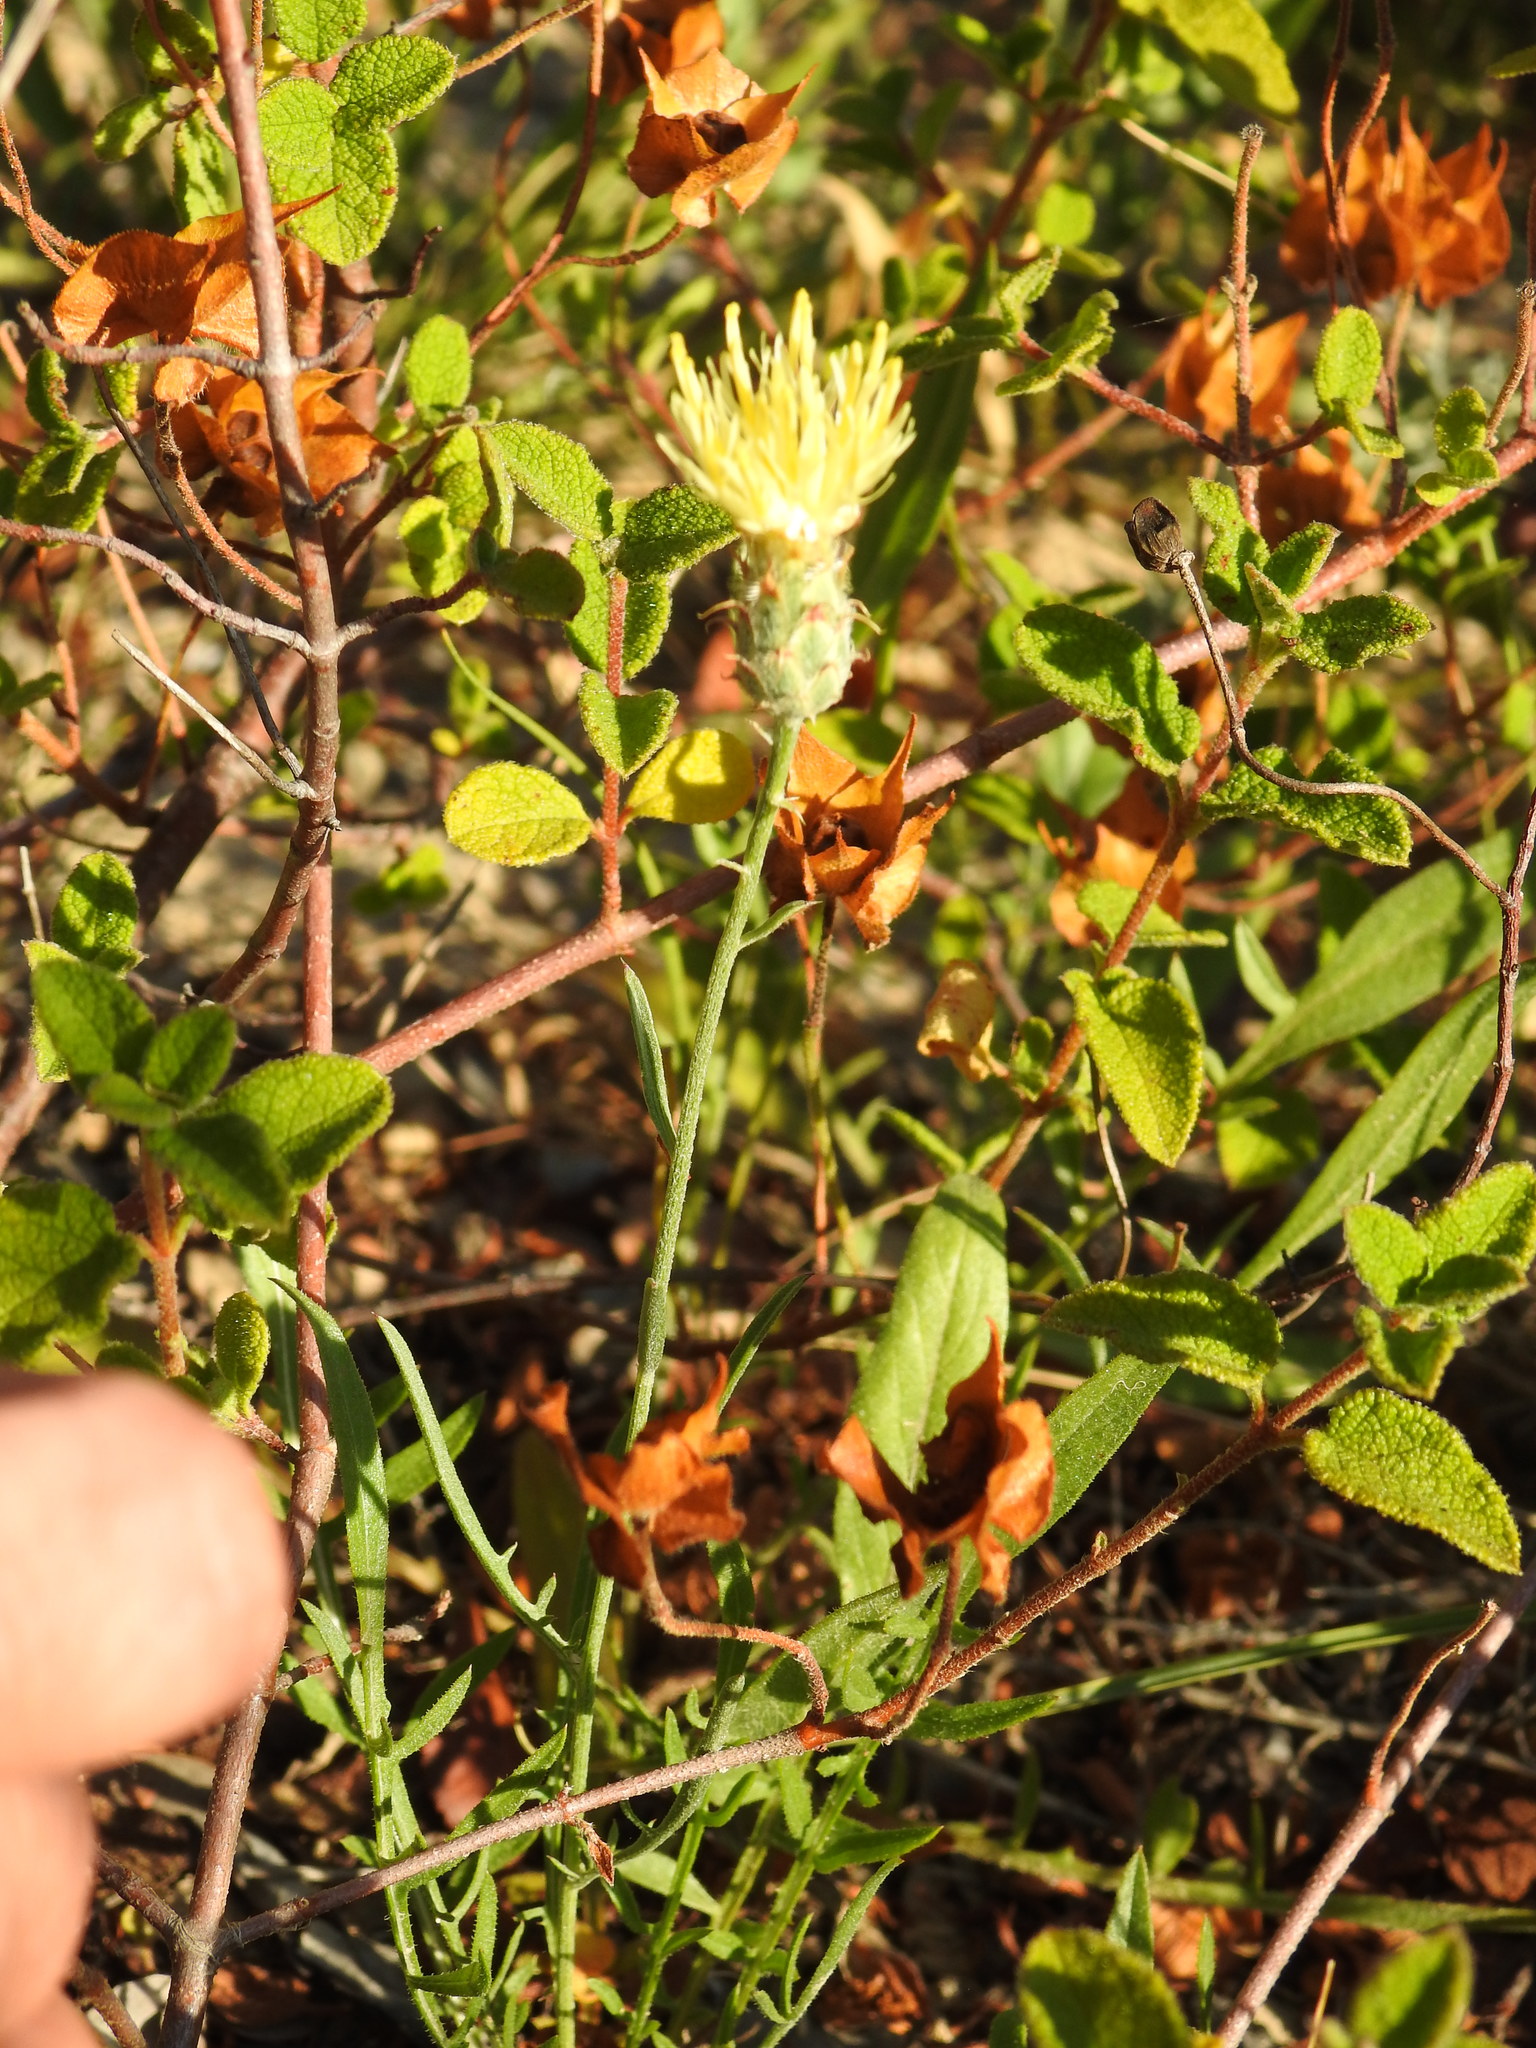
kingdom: Plantae
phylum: Tracheophyta
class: Magnoliopsida
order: Asterales
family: Asteraceae
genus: Centaurea
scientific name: Centaurea occasus
